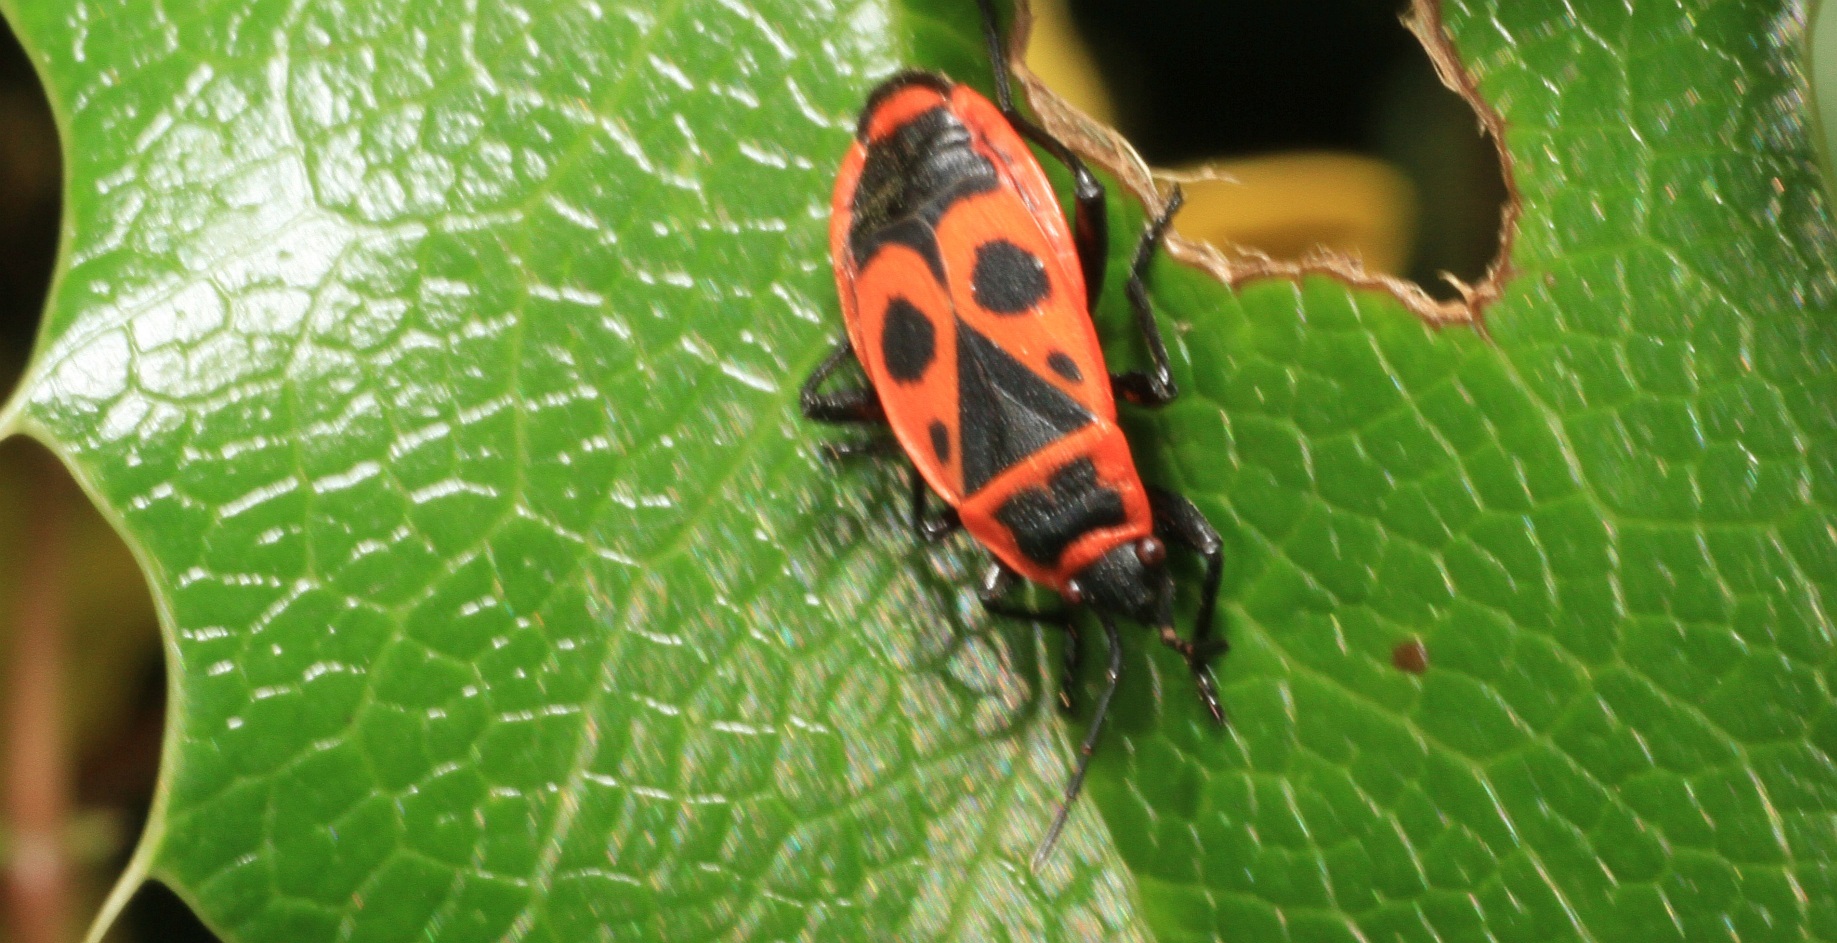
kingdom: Animalia
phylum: Arthropoda
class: Insecta
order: Hemiptera
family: Pyrrhocoridae
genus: Pyrrhocoris
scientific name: Pyrrhocoris apterus
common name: Firebug
